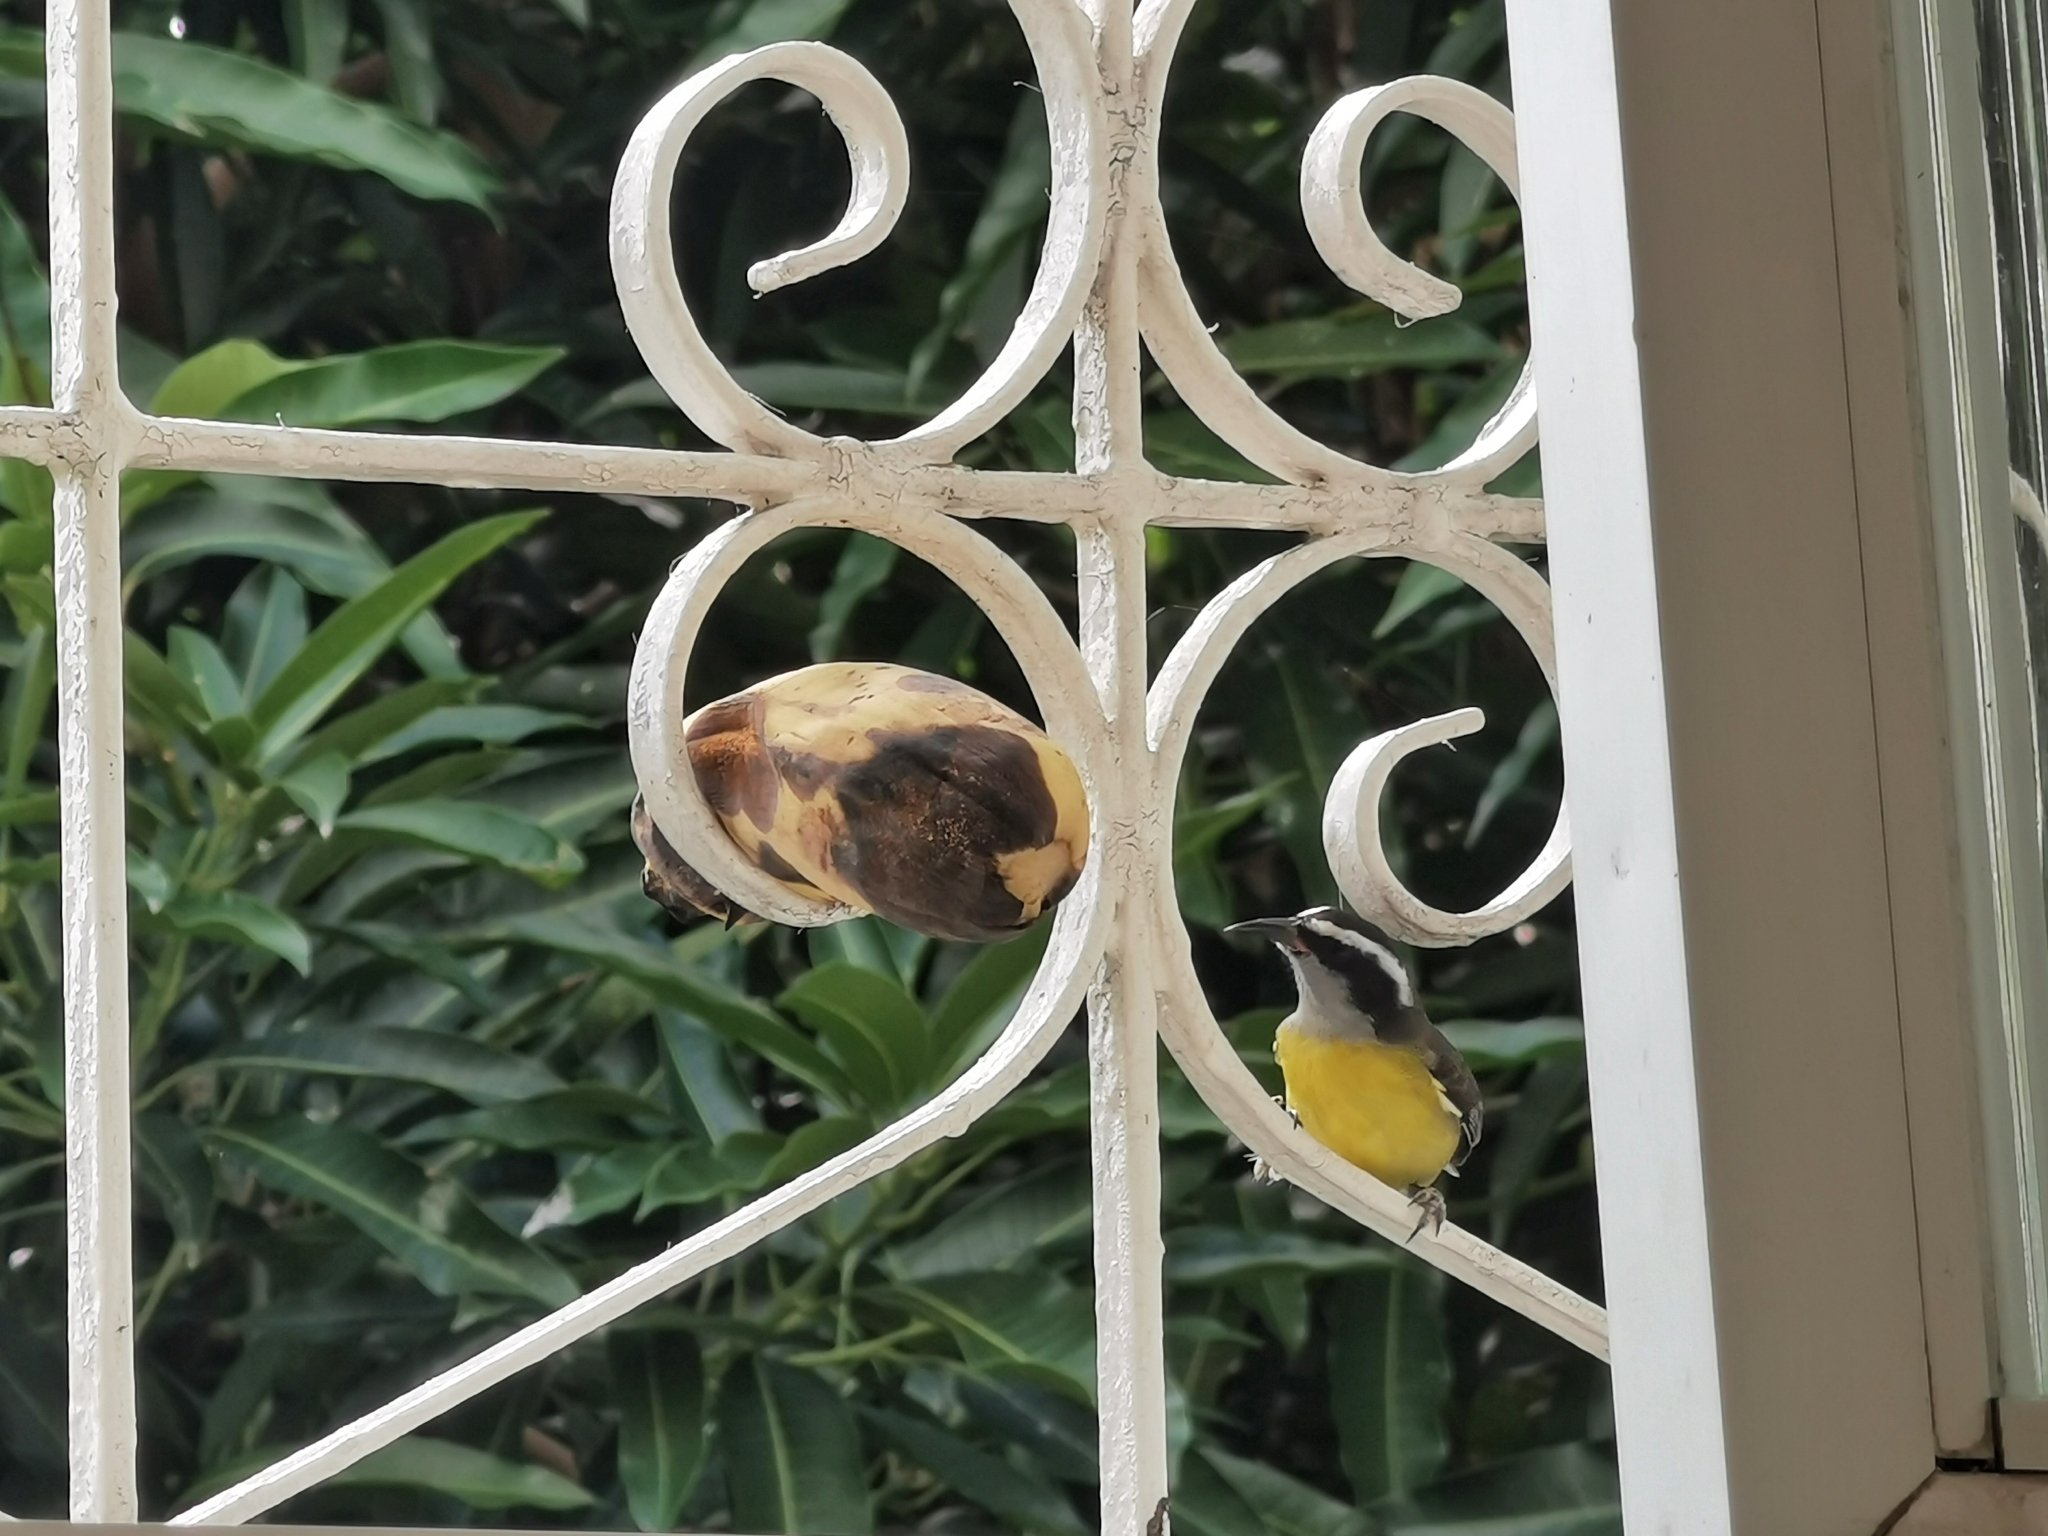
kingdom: Animalia
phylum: Chordata
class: Aves
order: Passeriformes
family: Thraupidae
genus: Coereba
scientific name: Coereba flaveola
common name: Bananaquit
